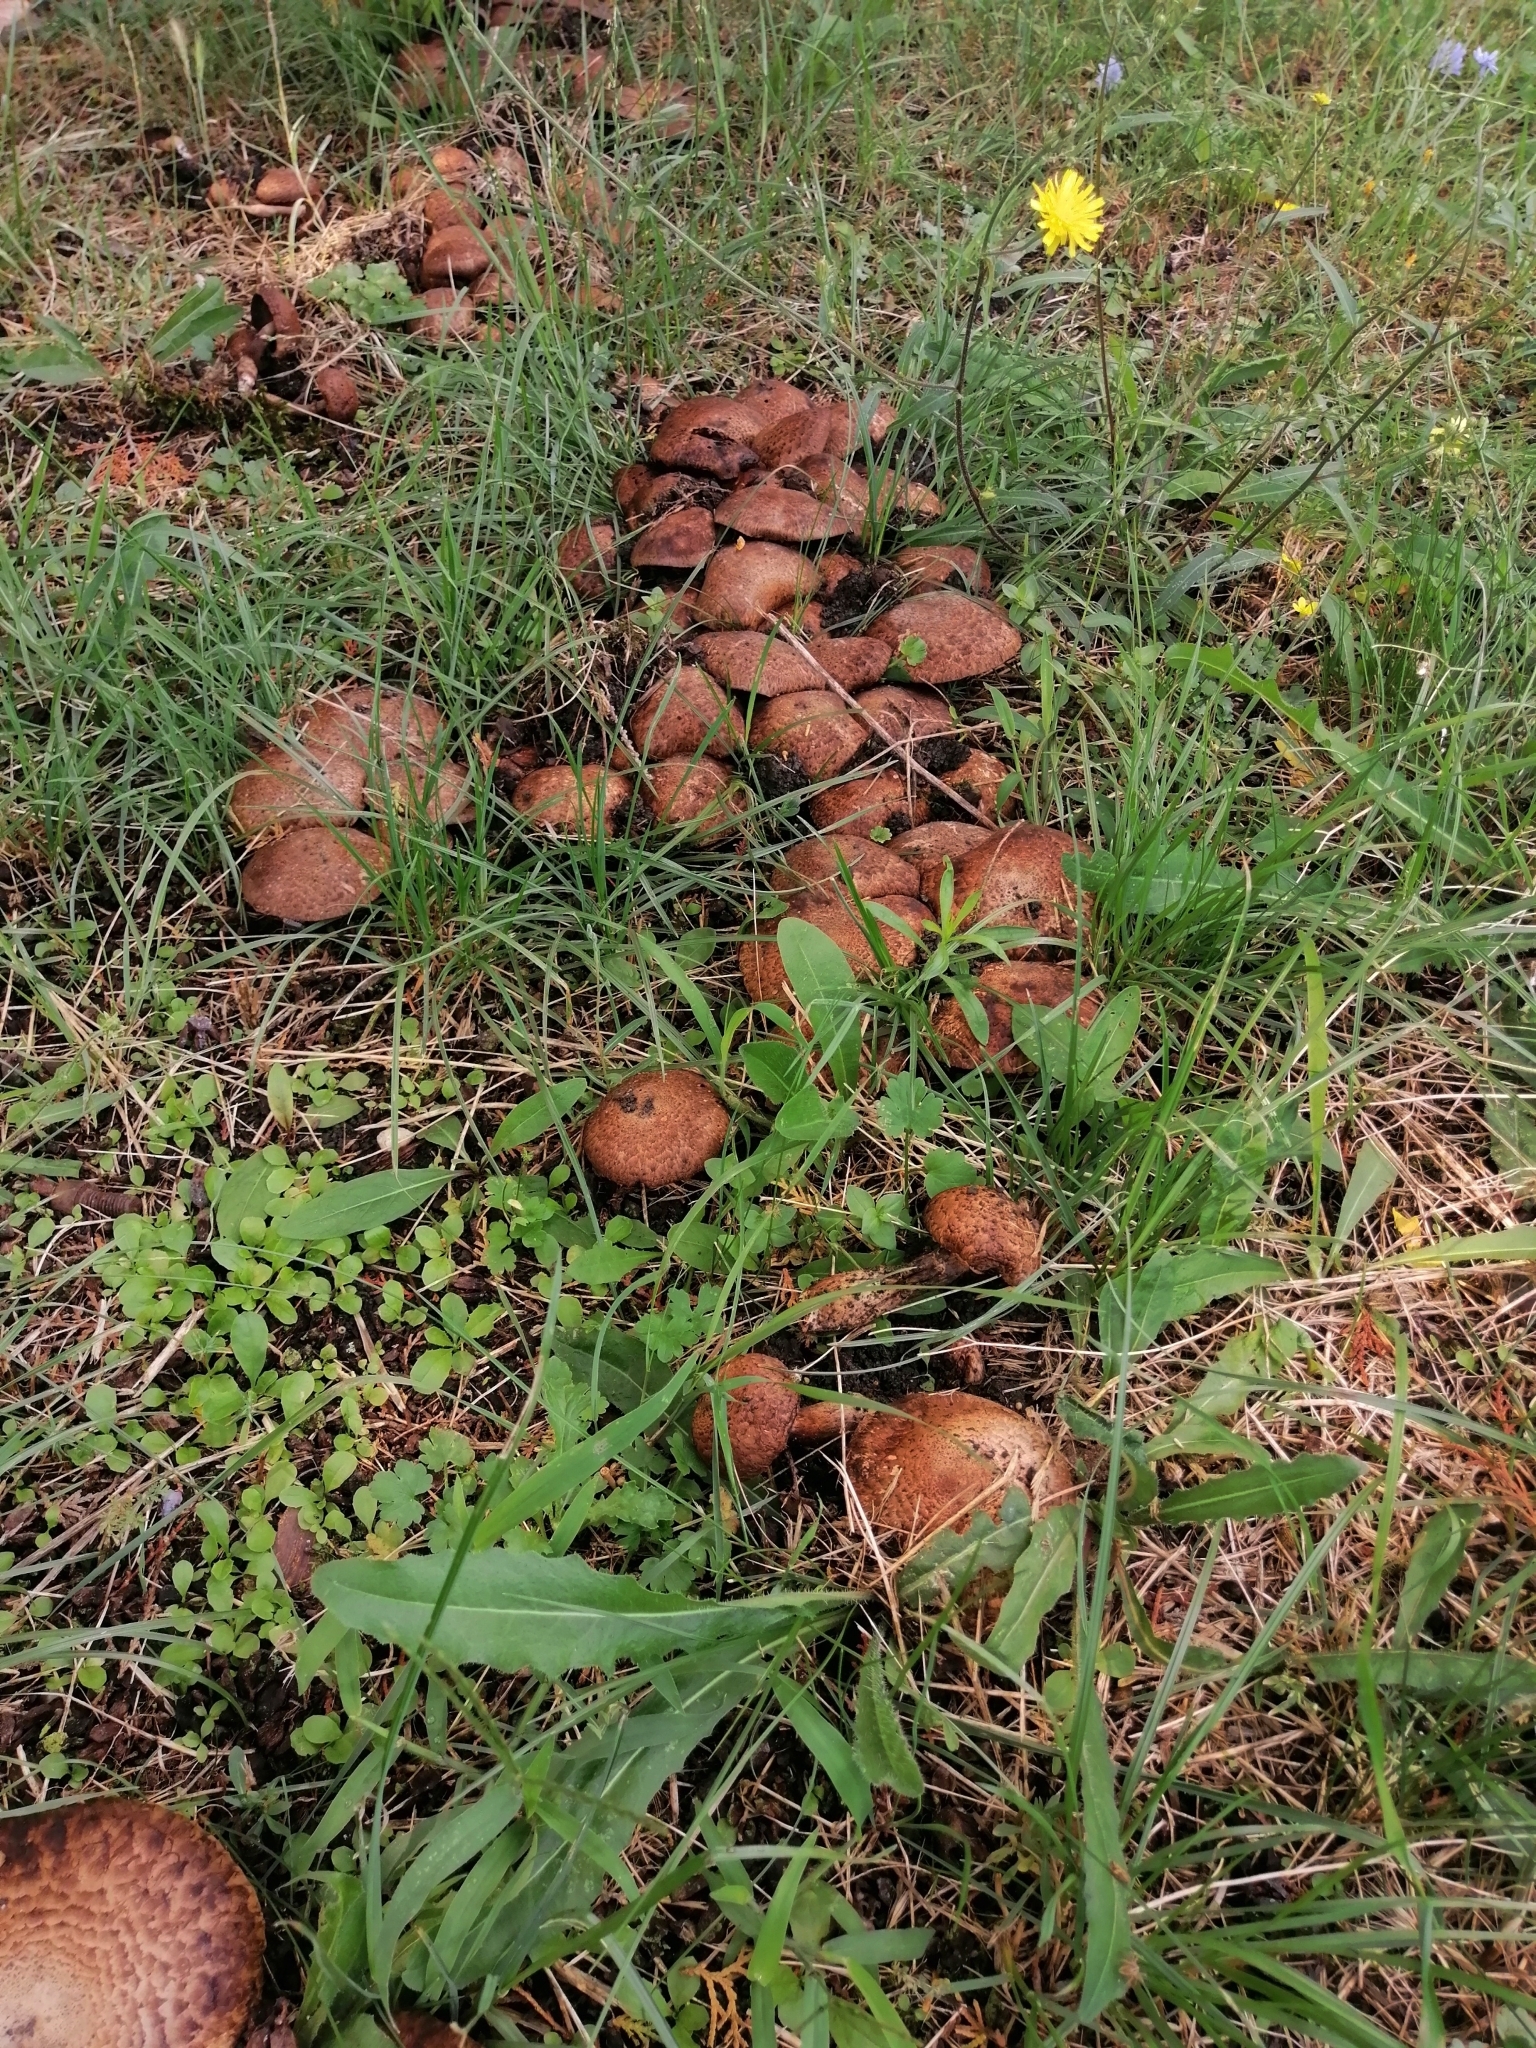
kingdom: Fungi
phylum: Basidiomycota
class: Agaricomycetes
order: Agaricales
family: Agaricaceae
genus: Agaricus
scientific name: Agaricus bohusii
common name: Medusa mushroom
